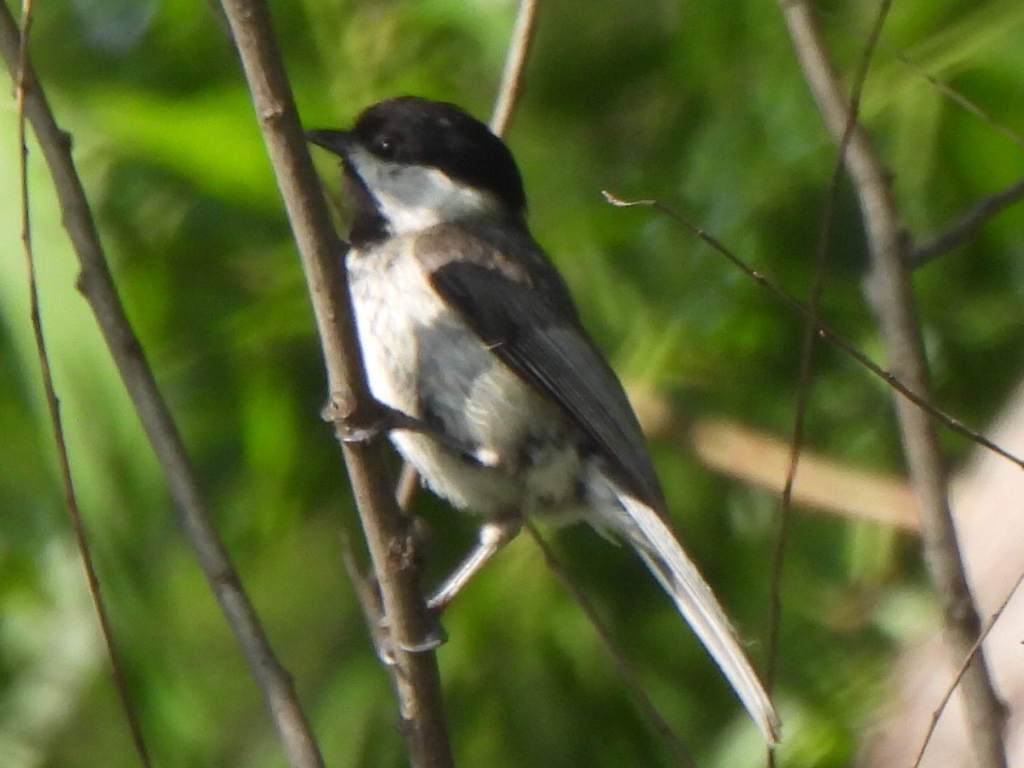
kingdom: Animalia
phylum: Chordata
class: Aves
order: Passeriformes
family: Paridae
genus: Poecile
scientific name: Poecile carolinensis
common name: Carolina chickadee
